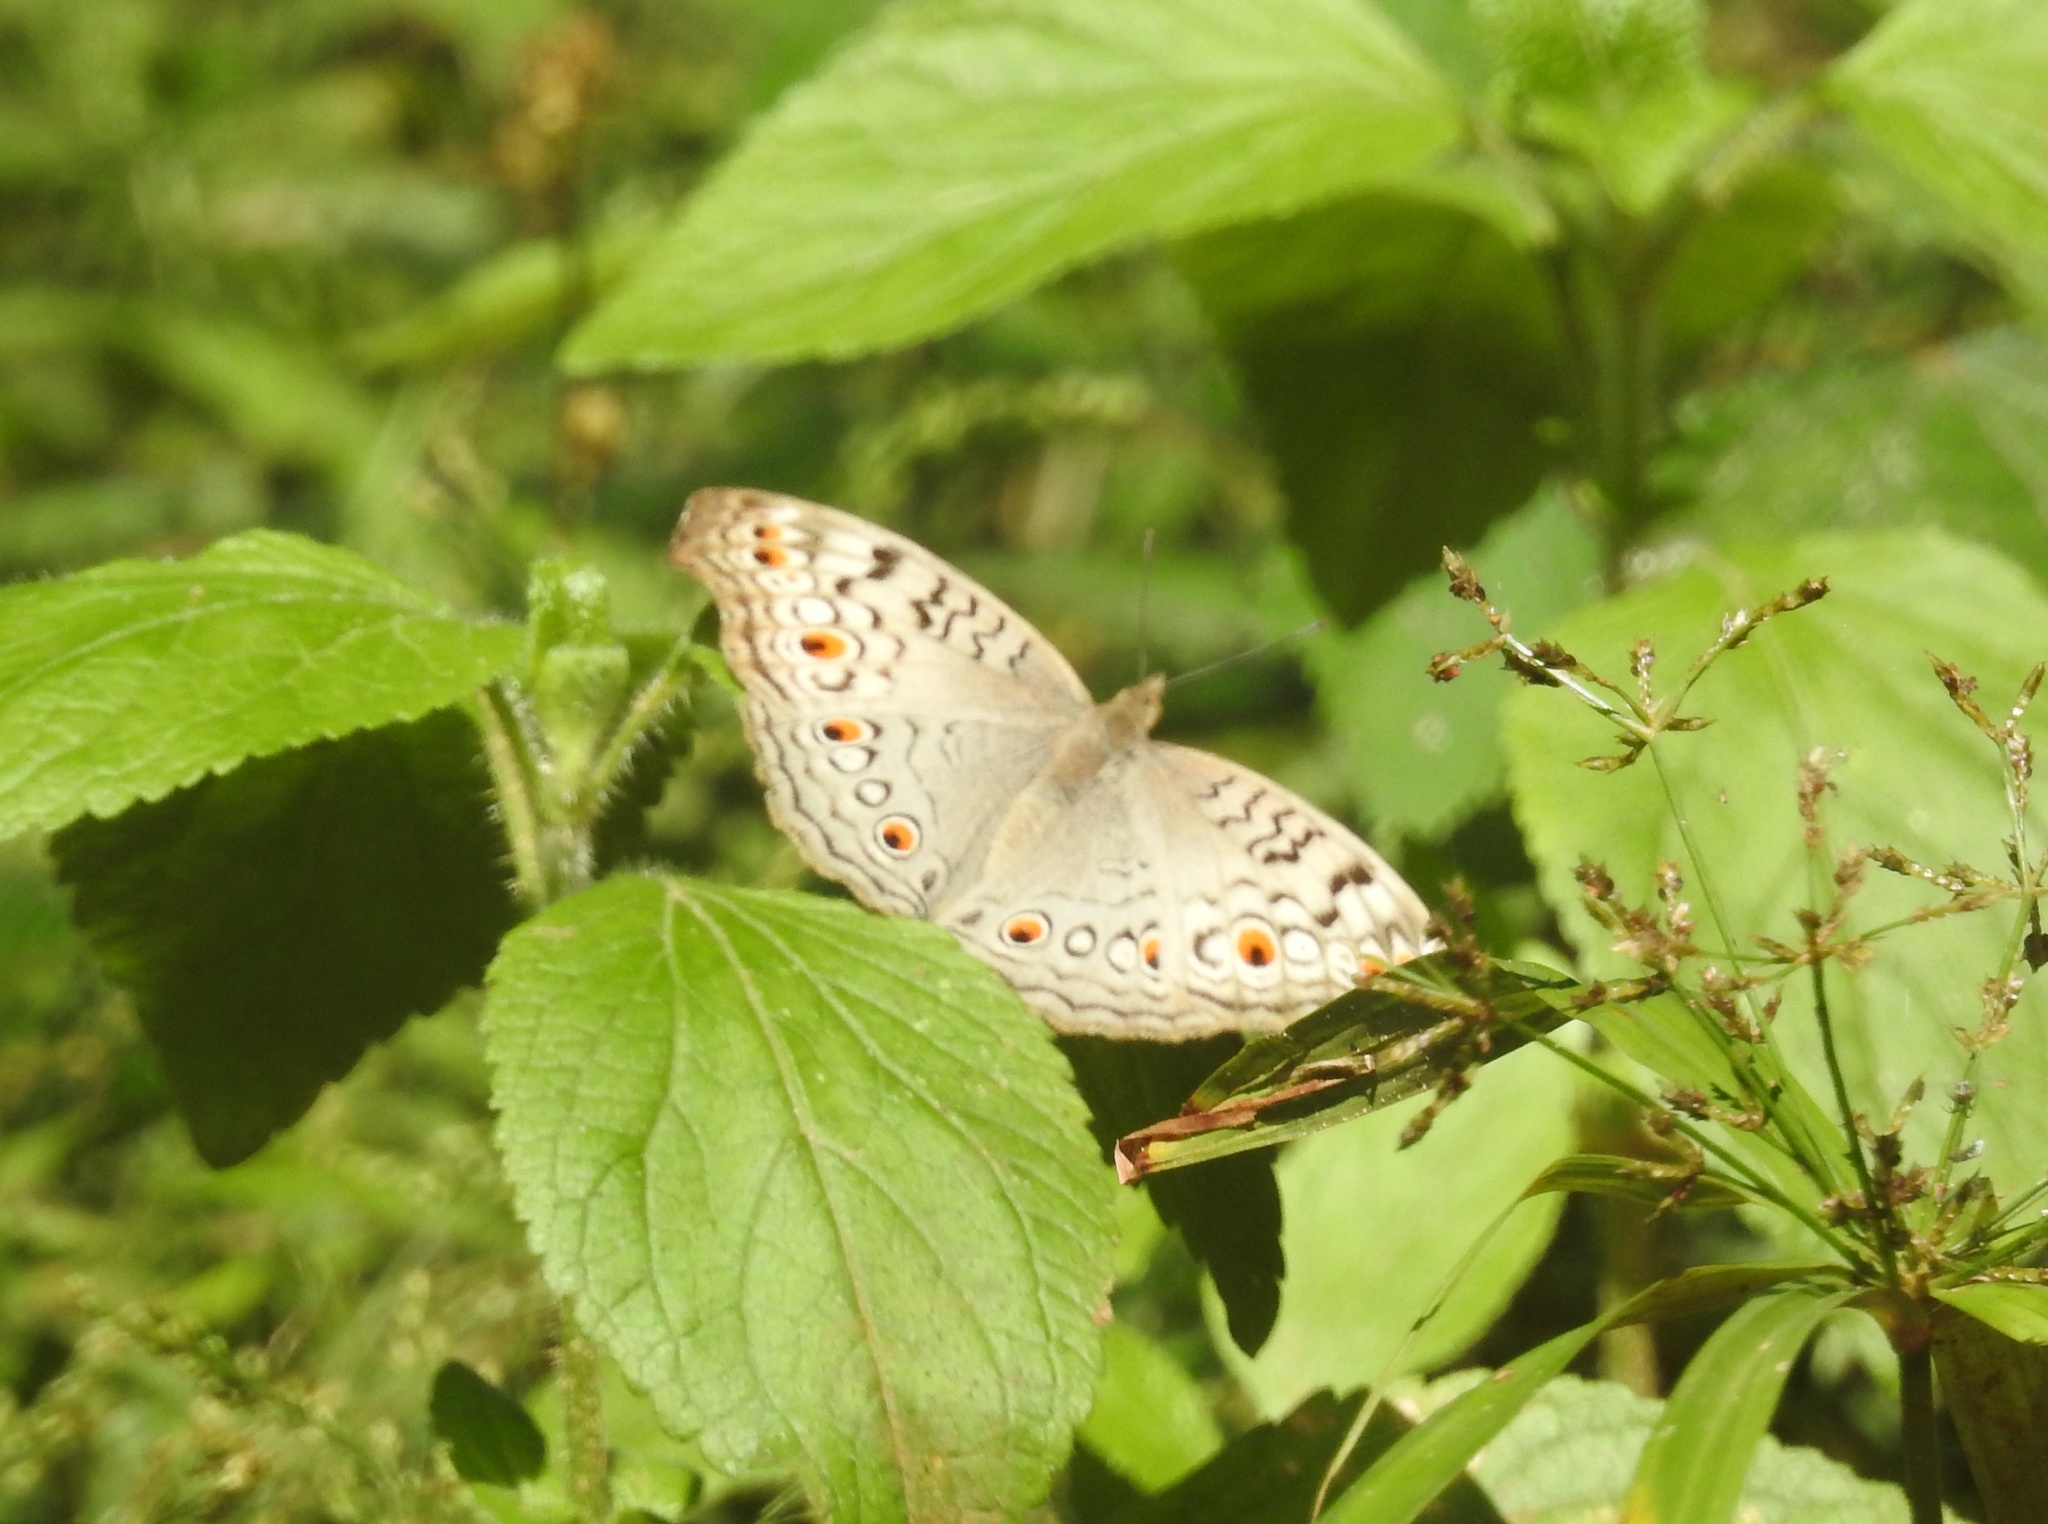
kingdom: Animalia
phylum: Arthropoda
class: Insecta
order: Lepidoptera
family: Nymphalidae
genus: Junonia
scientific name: Junonia atlites
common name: Grey pansy
